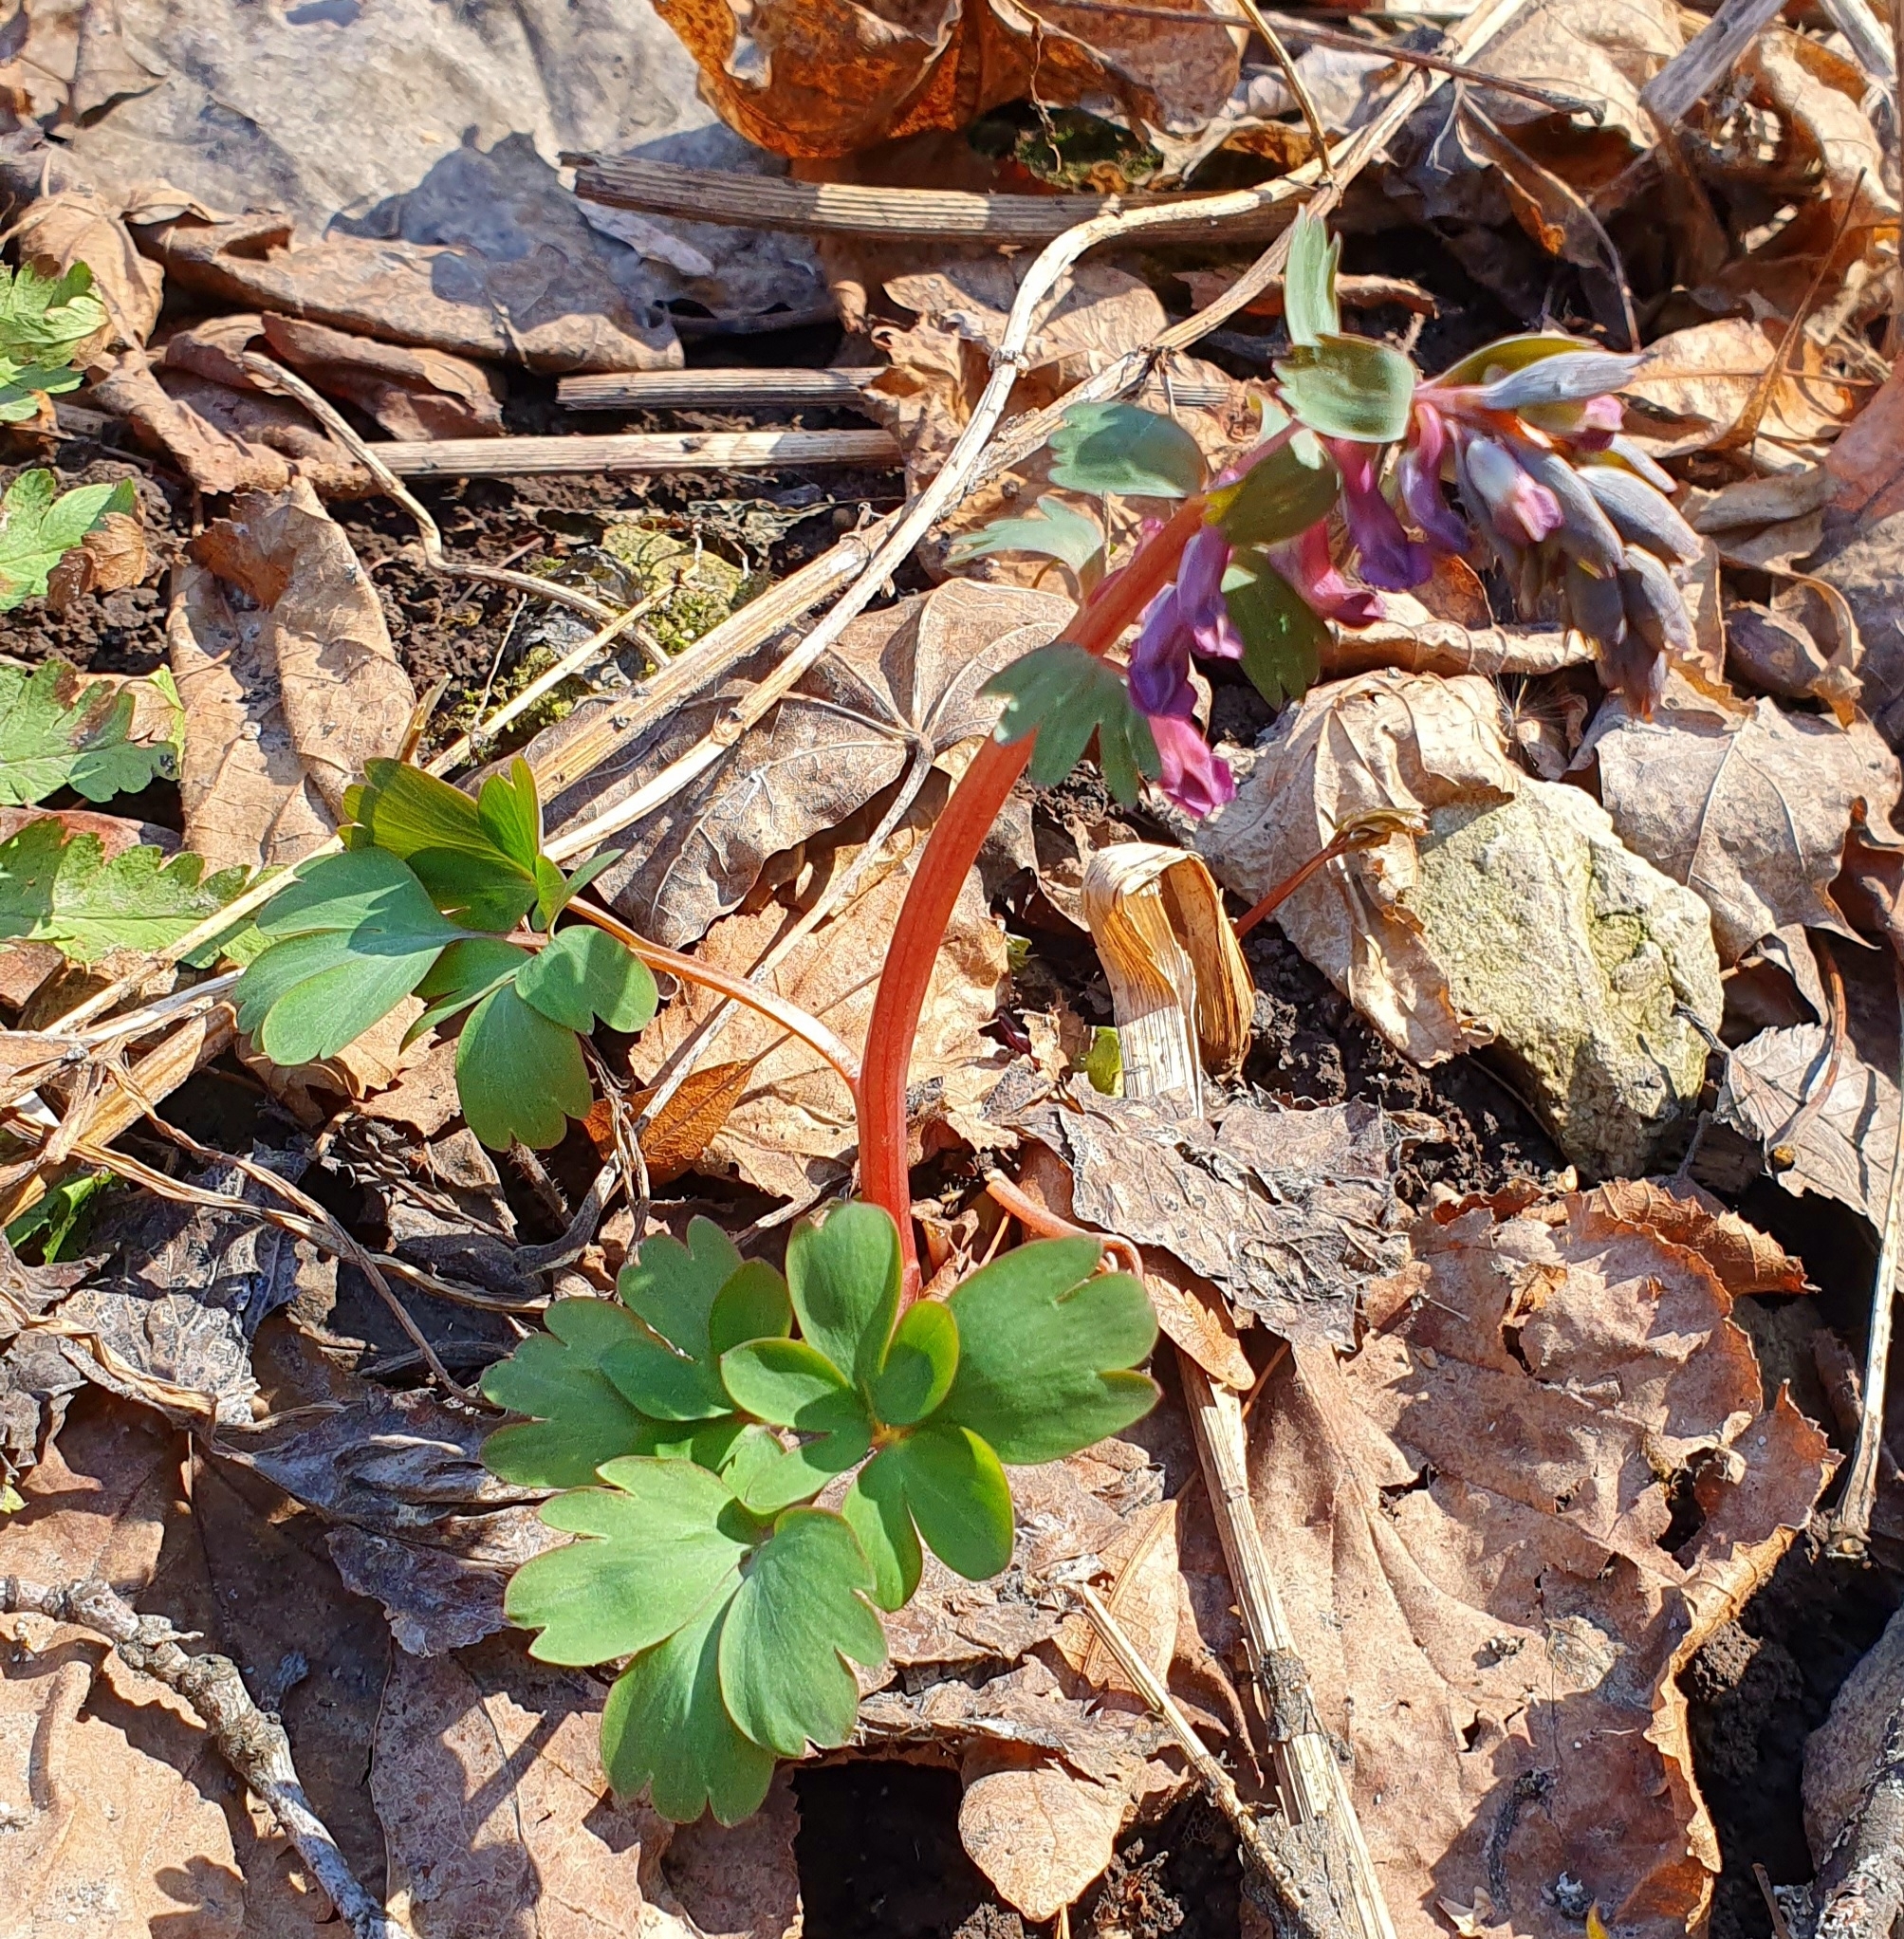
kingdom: Plantae
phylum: Tracheophyta
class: Magnoliopsida
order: Ranunculales
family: Papaveraceae
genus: Corydalis
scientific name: Corydalis solida
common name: Bird-in-a-bush
